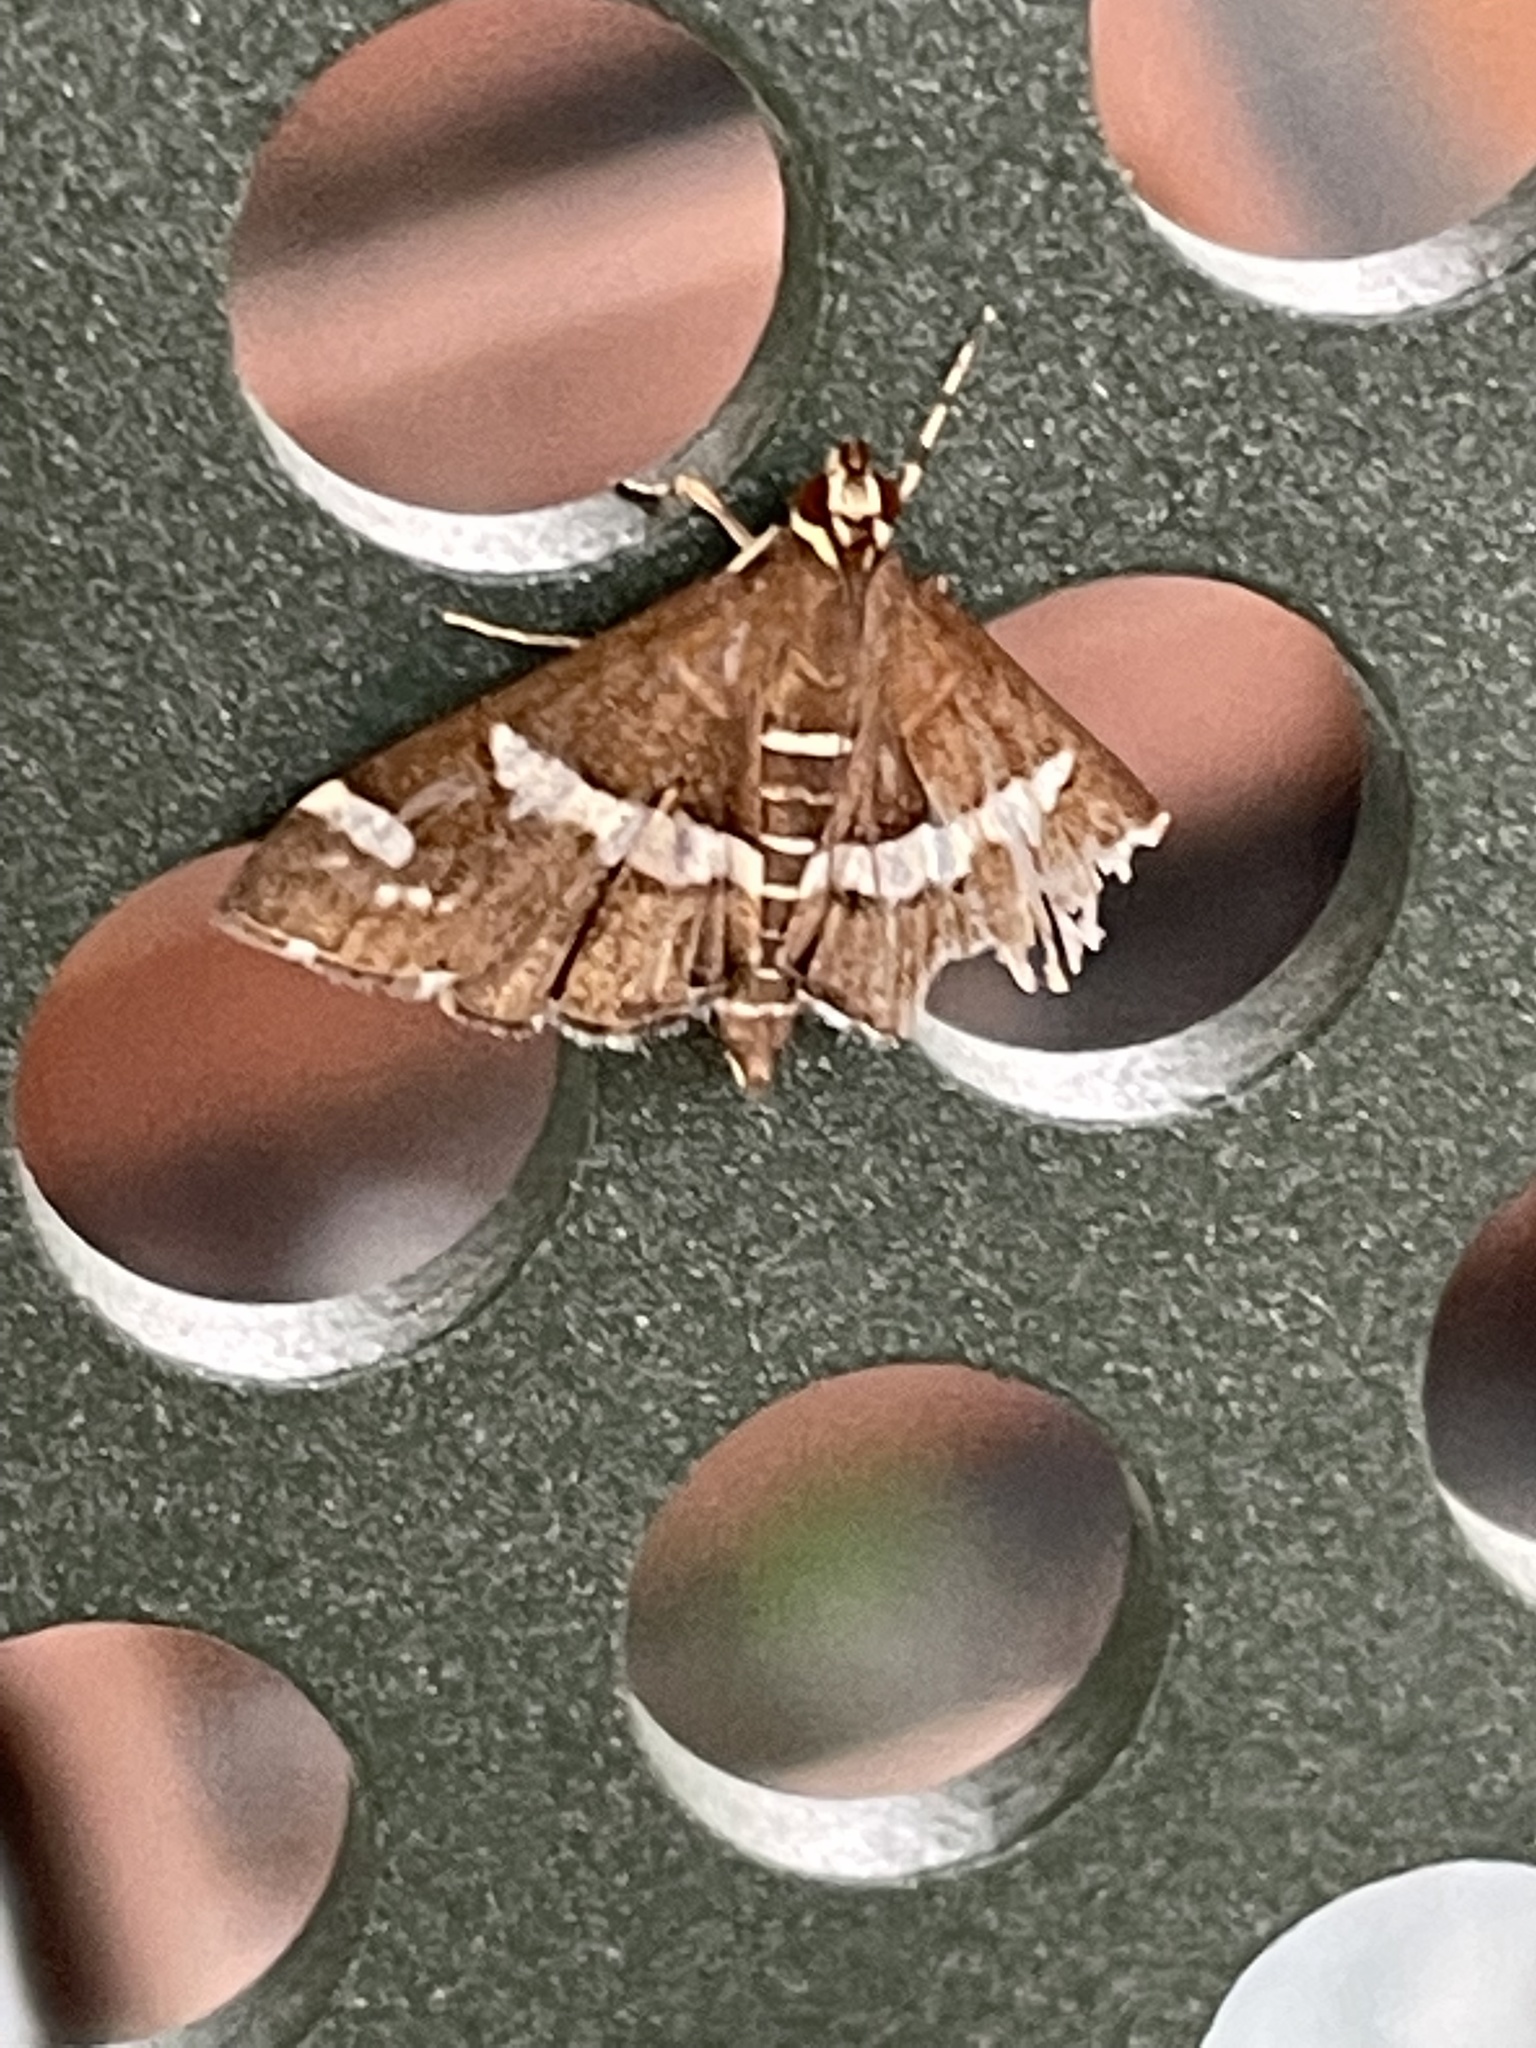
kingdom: Animalia
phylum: Arthropoda
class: Insecta
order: Lepidoptera
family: Crambidae
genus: Spoladea
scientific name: Spoladea recurvalis
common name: Beet webworm moth
